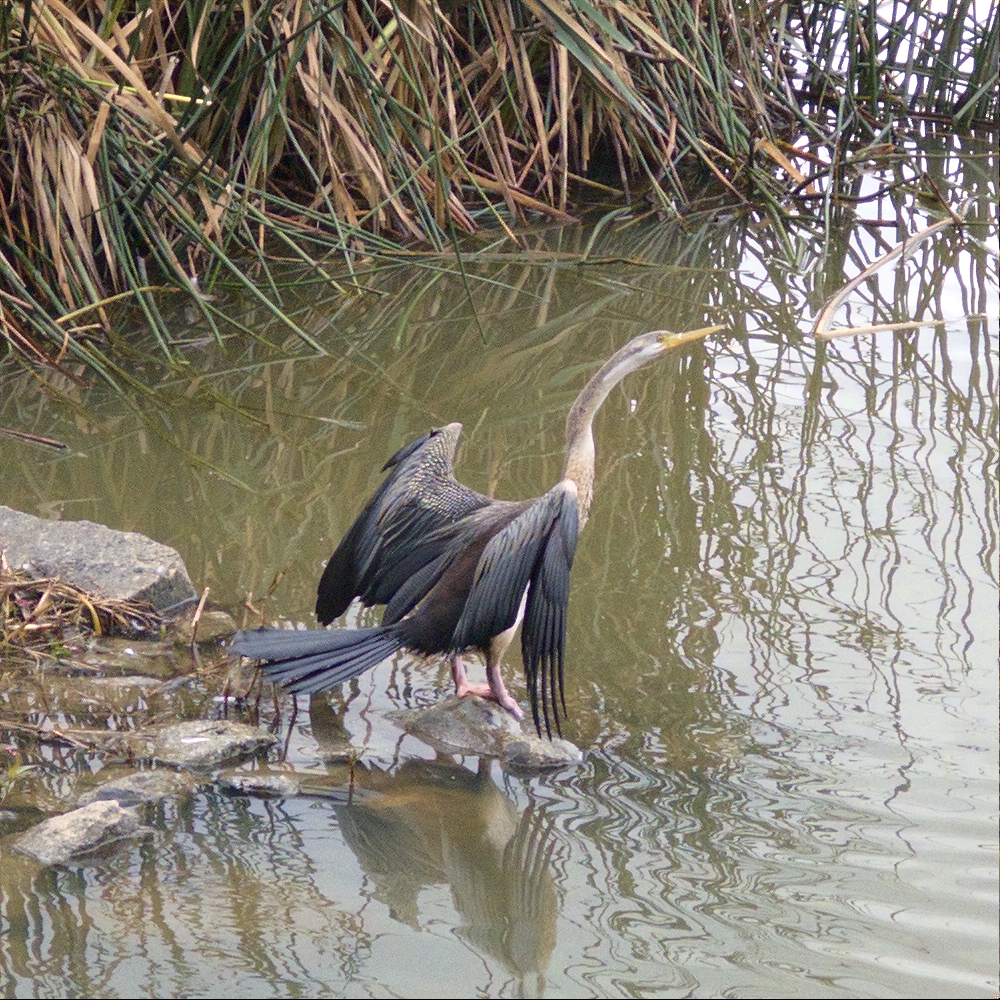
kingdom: Animalia
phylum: Chordata
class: Aves
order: Suliformes
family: Anhingidae
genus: Anhinga
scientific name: Anhinga novaehollandiae
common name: Australasian darter
